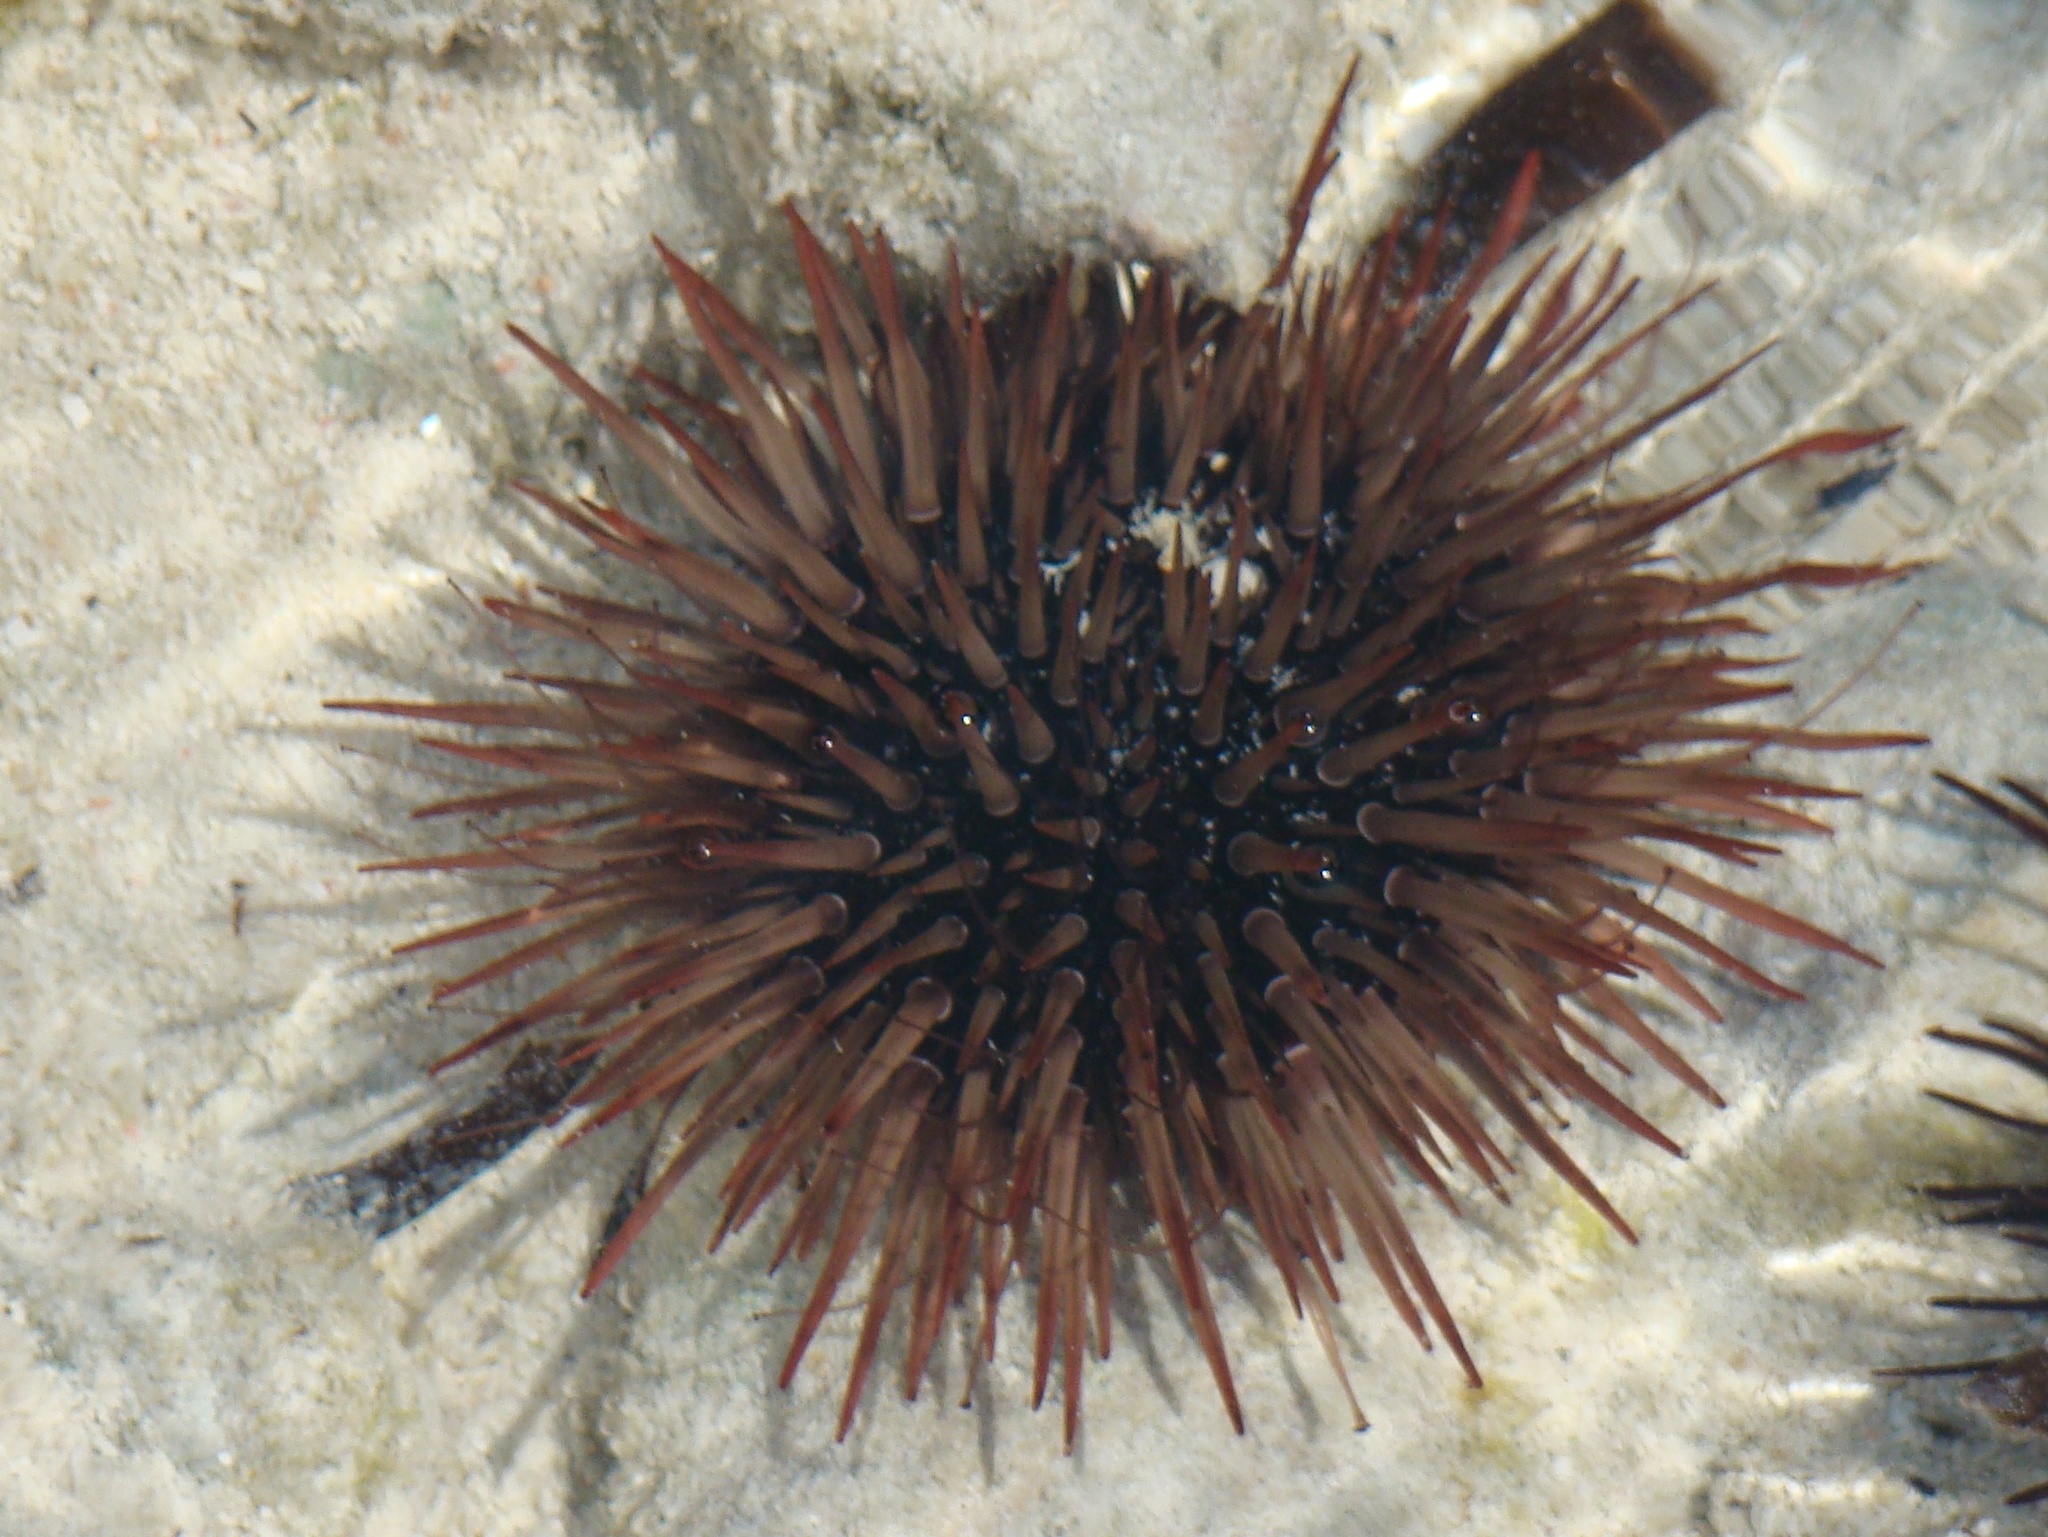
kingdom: Animalia
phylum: Echinodermata
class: Echinoidea
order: Camarodonta
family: Echinometridae
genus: Echinometra
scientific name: Echinometra mathaei
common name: Rock-boring urchin
